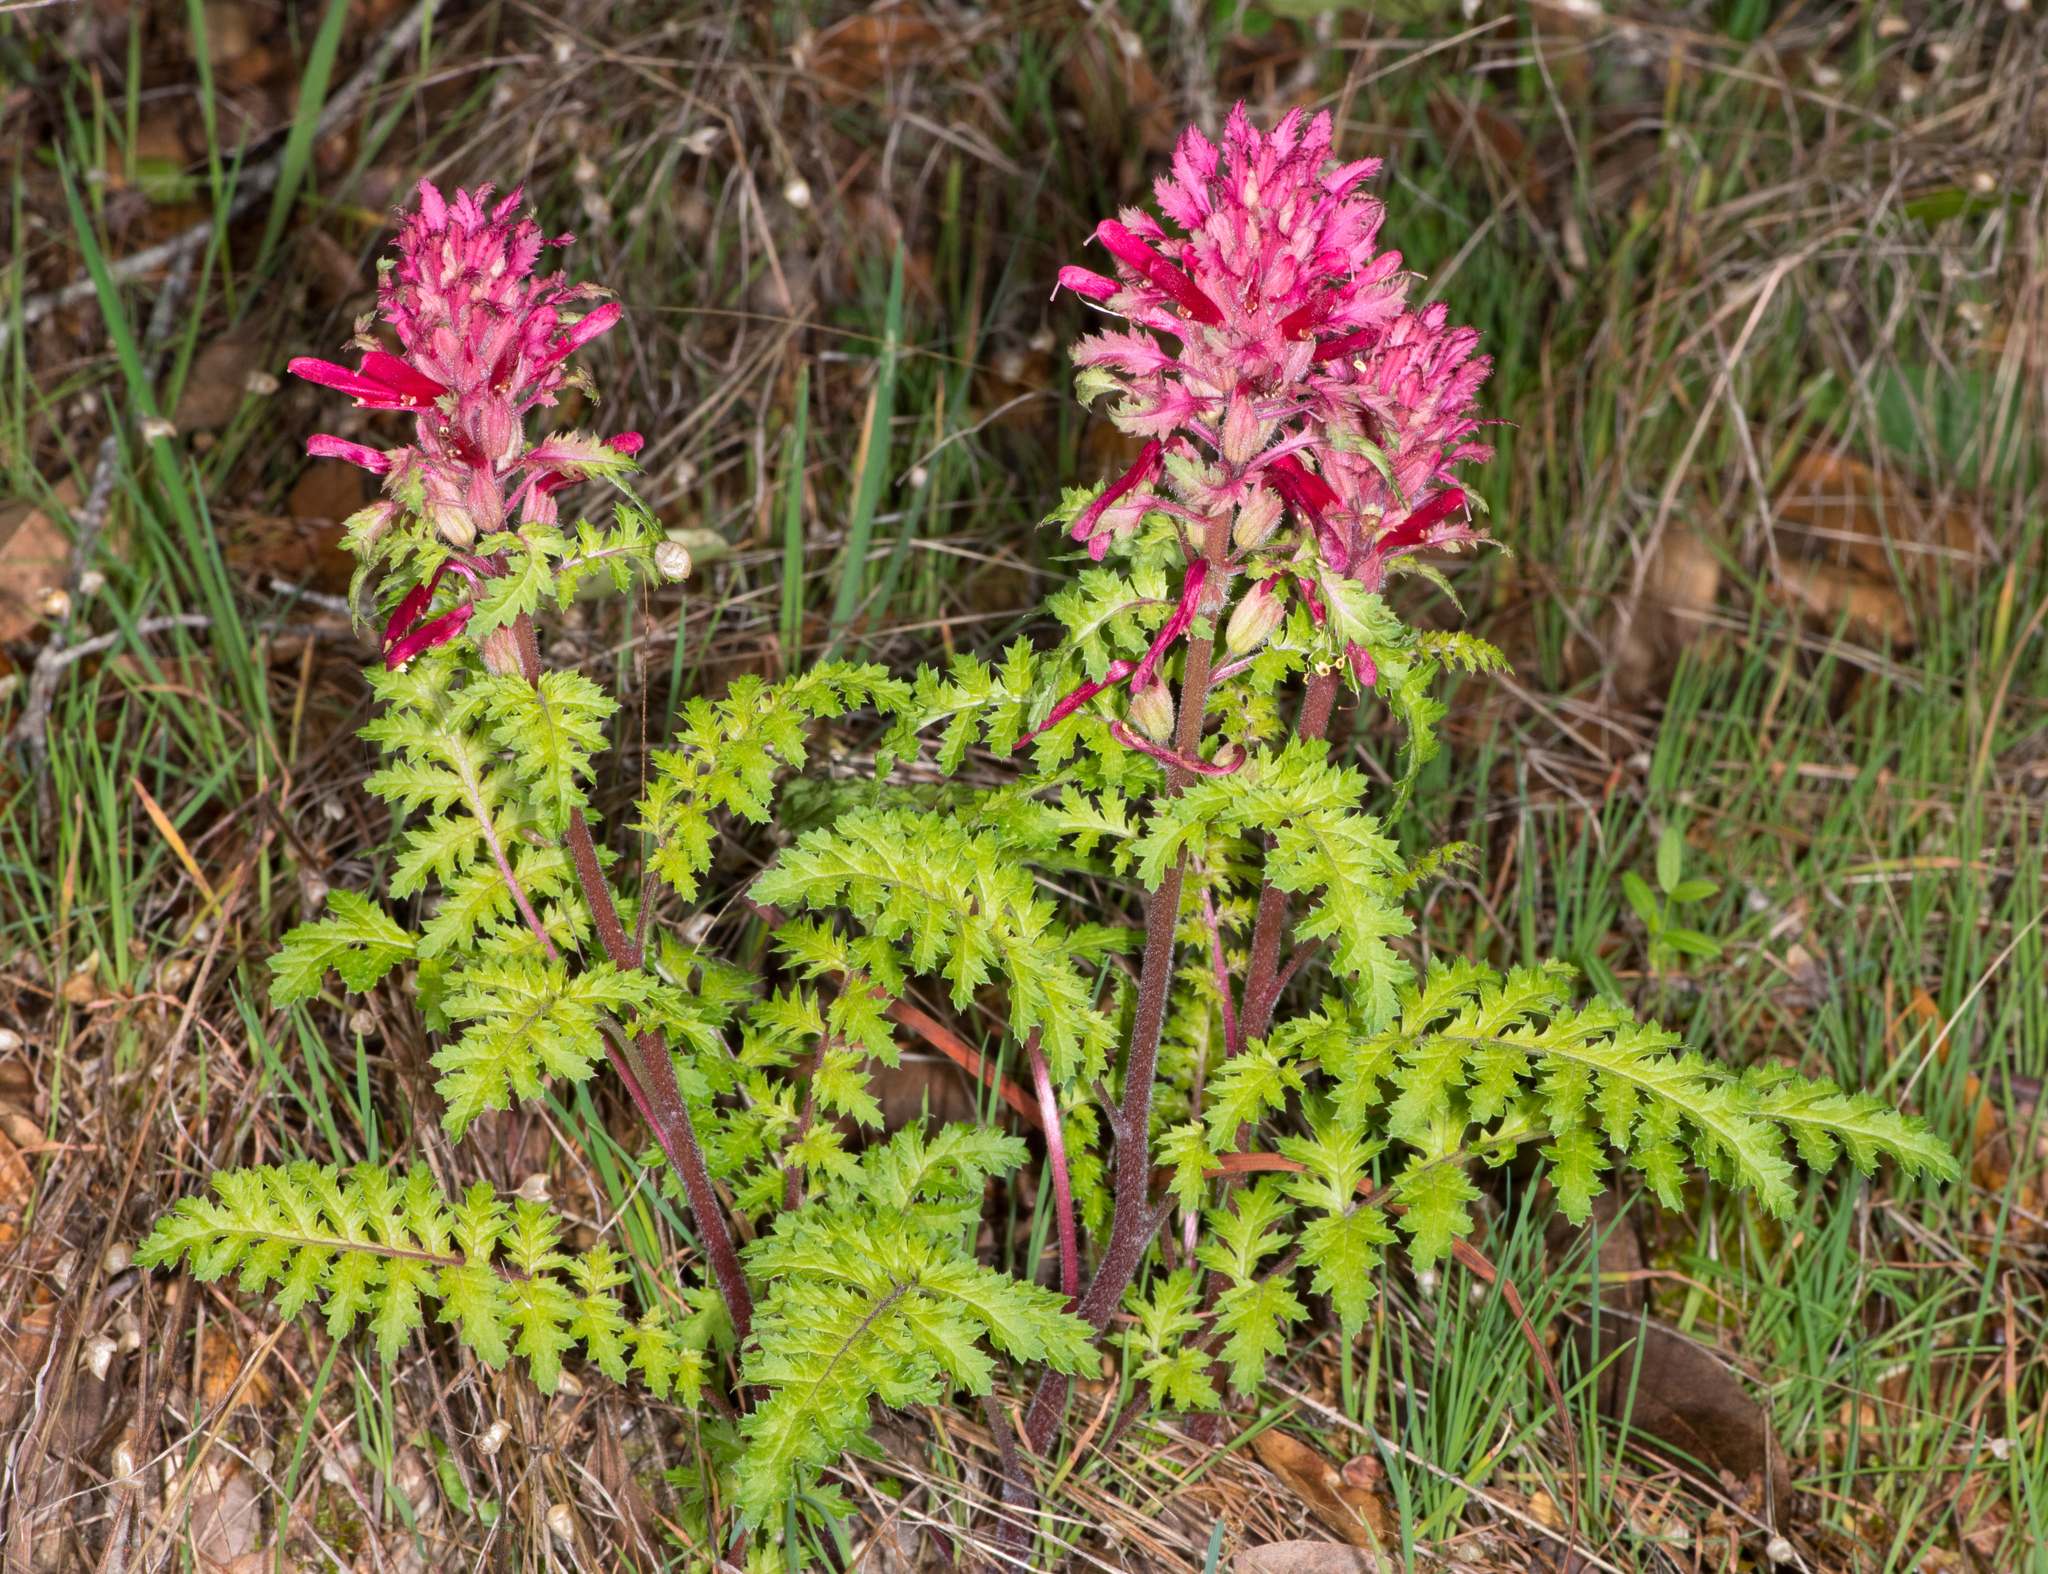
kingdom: Plantae
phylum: Tracheophyta
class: Magnoliopsida
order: Lamiales
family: Orobanchaceae
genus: Pedicularis
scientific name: Pedicularis densiflora
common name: Indian warrior
